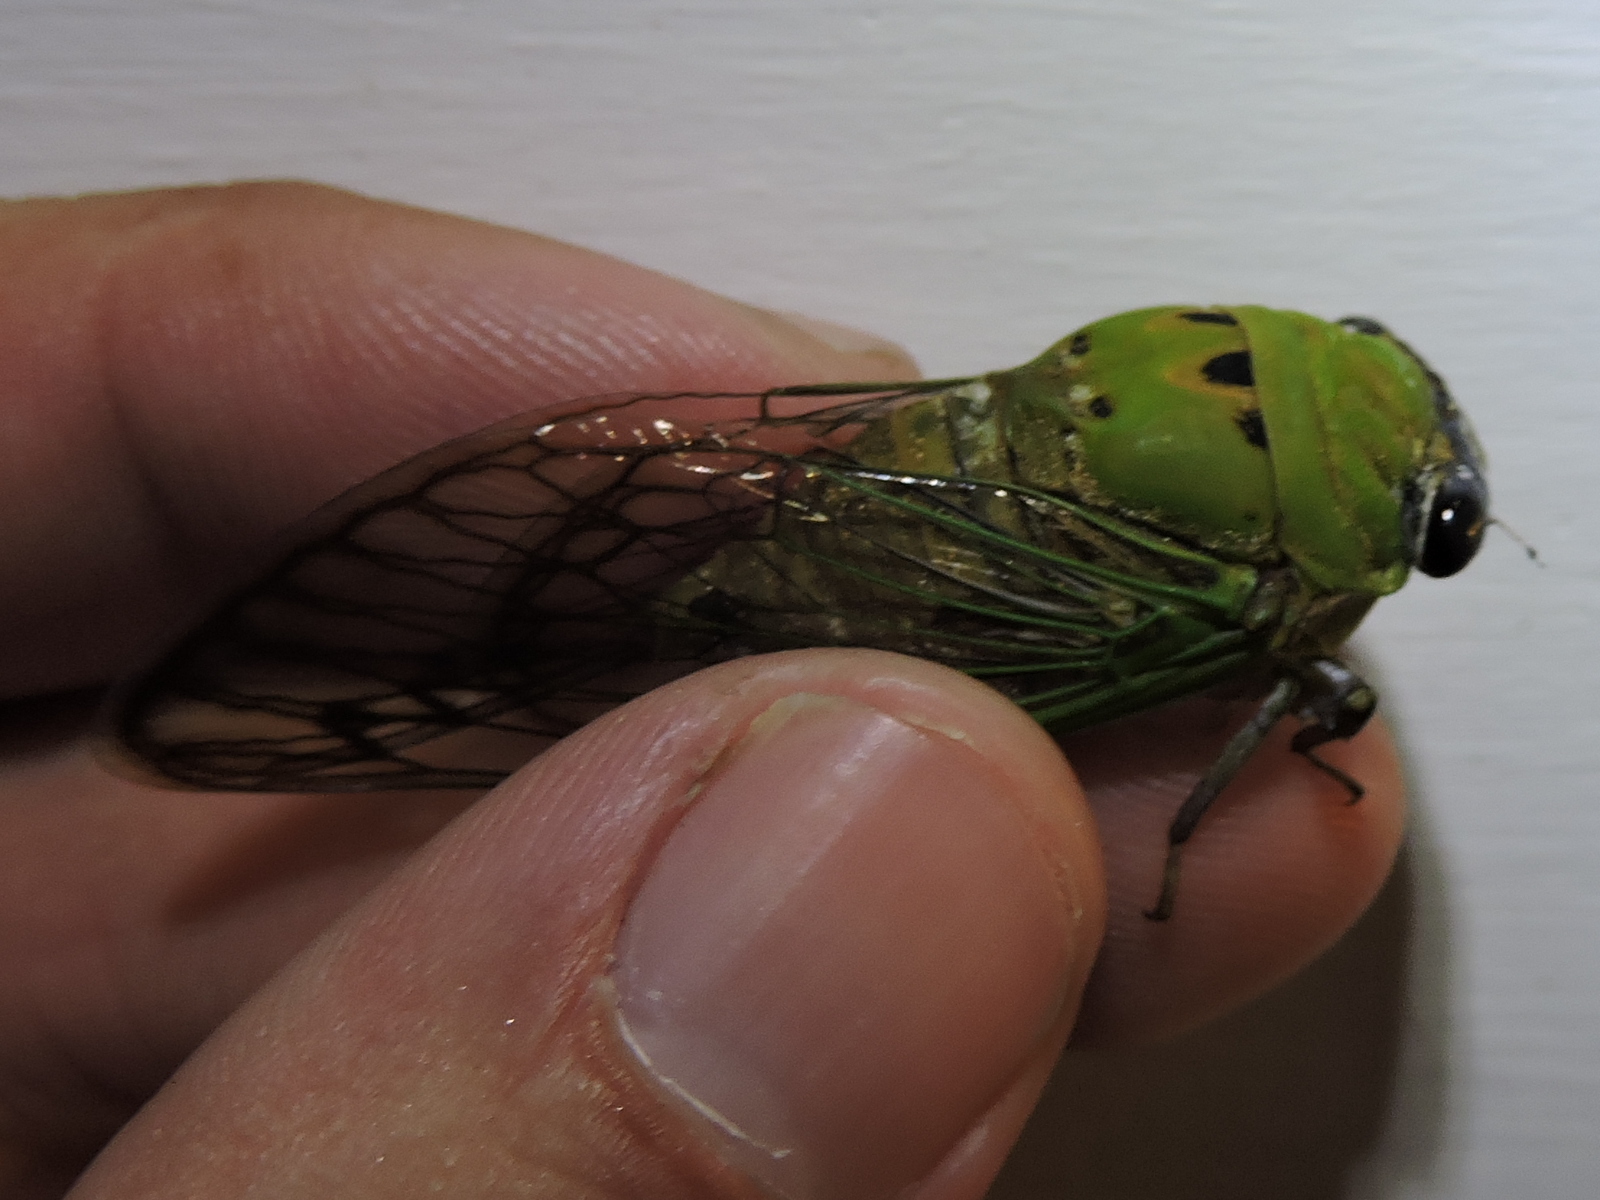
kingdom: Animalia
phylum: Arthropoda
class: Insecta
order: Hemiptera
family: Cicadidae
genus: Neotibicen
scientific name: Neotibicen superbus
